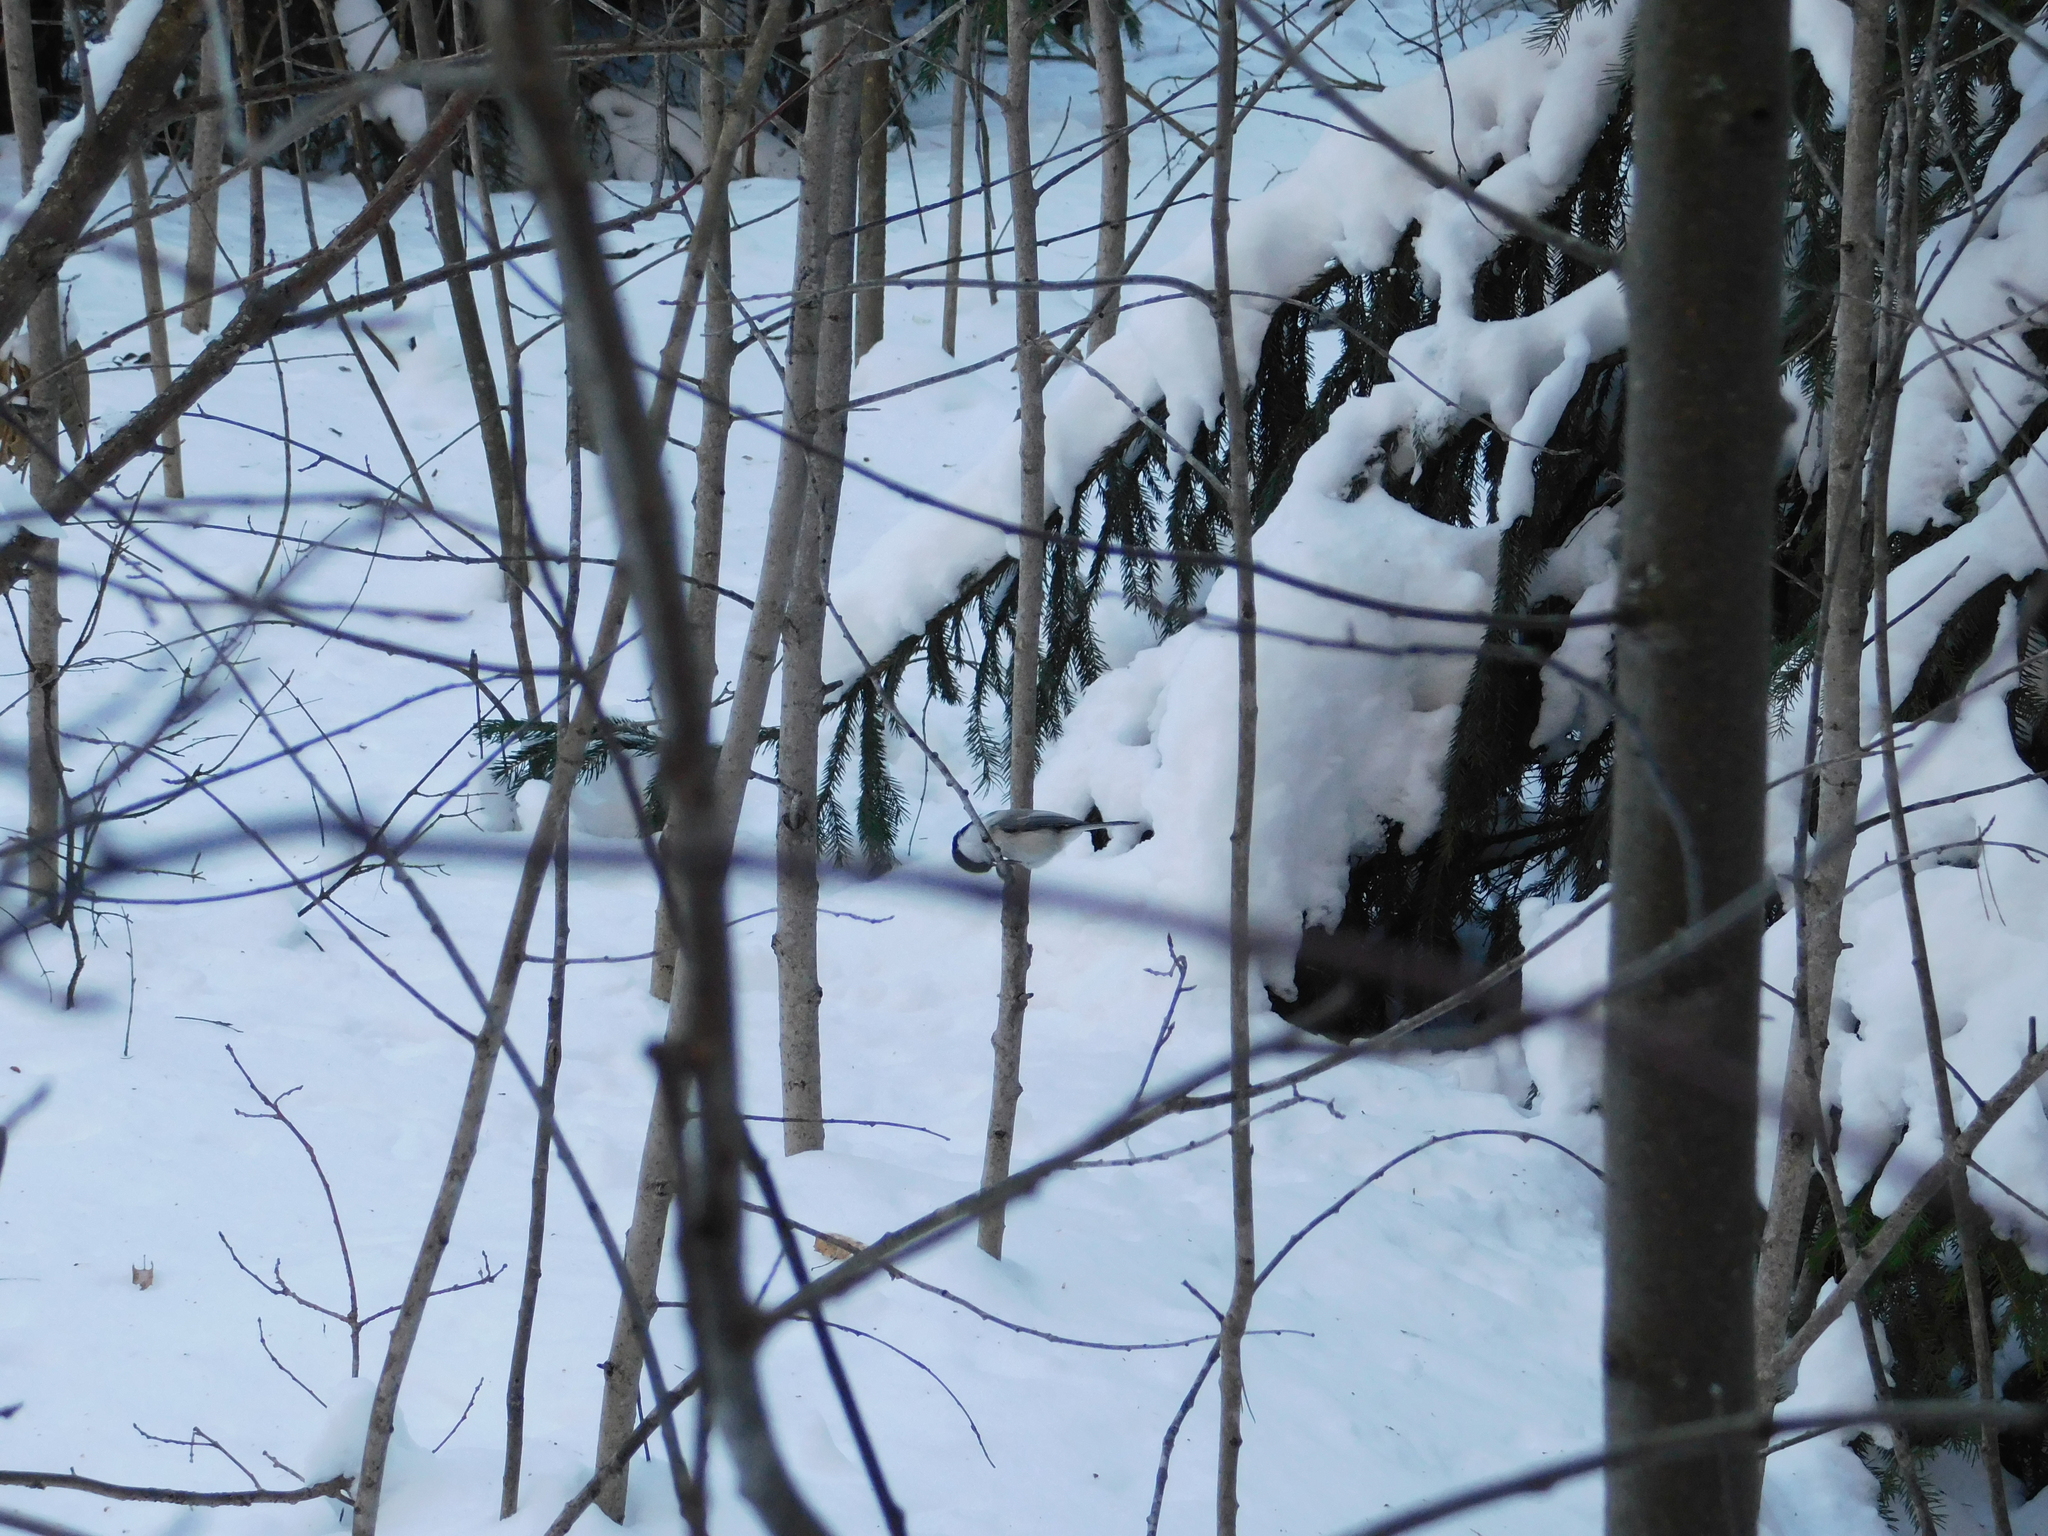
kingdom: Animalia
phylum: Chordata
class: Aves
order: Passeriformes
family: Paridae
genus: Poecile
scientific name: Poecile montanus
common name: Willow tit
